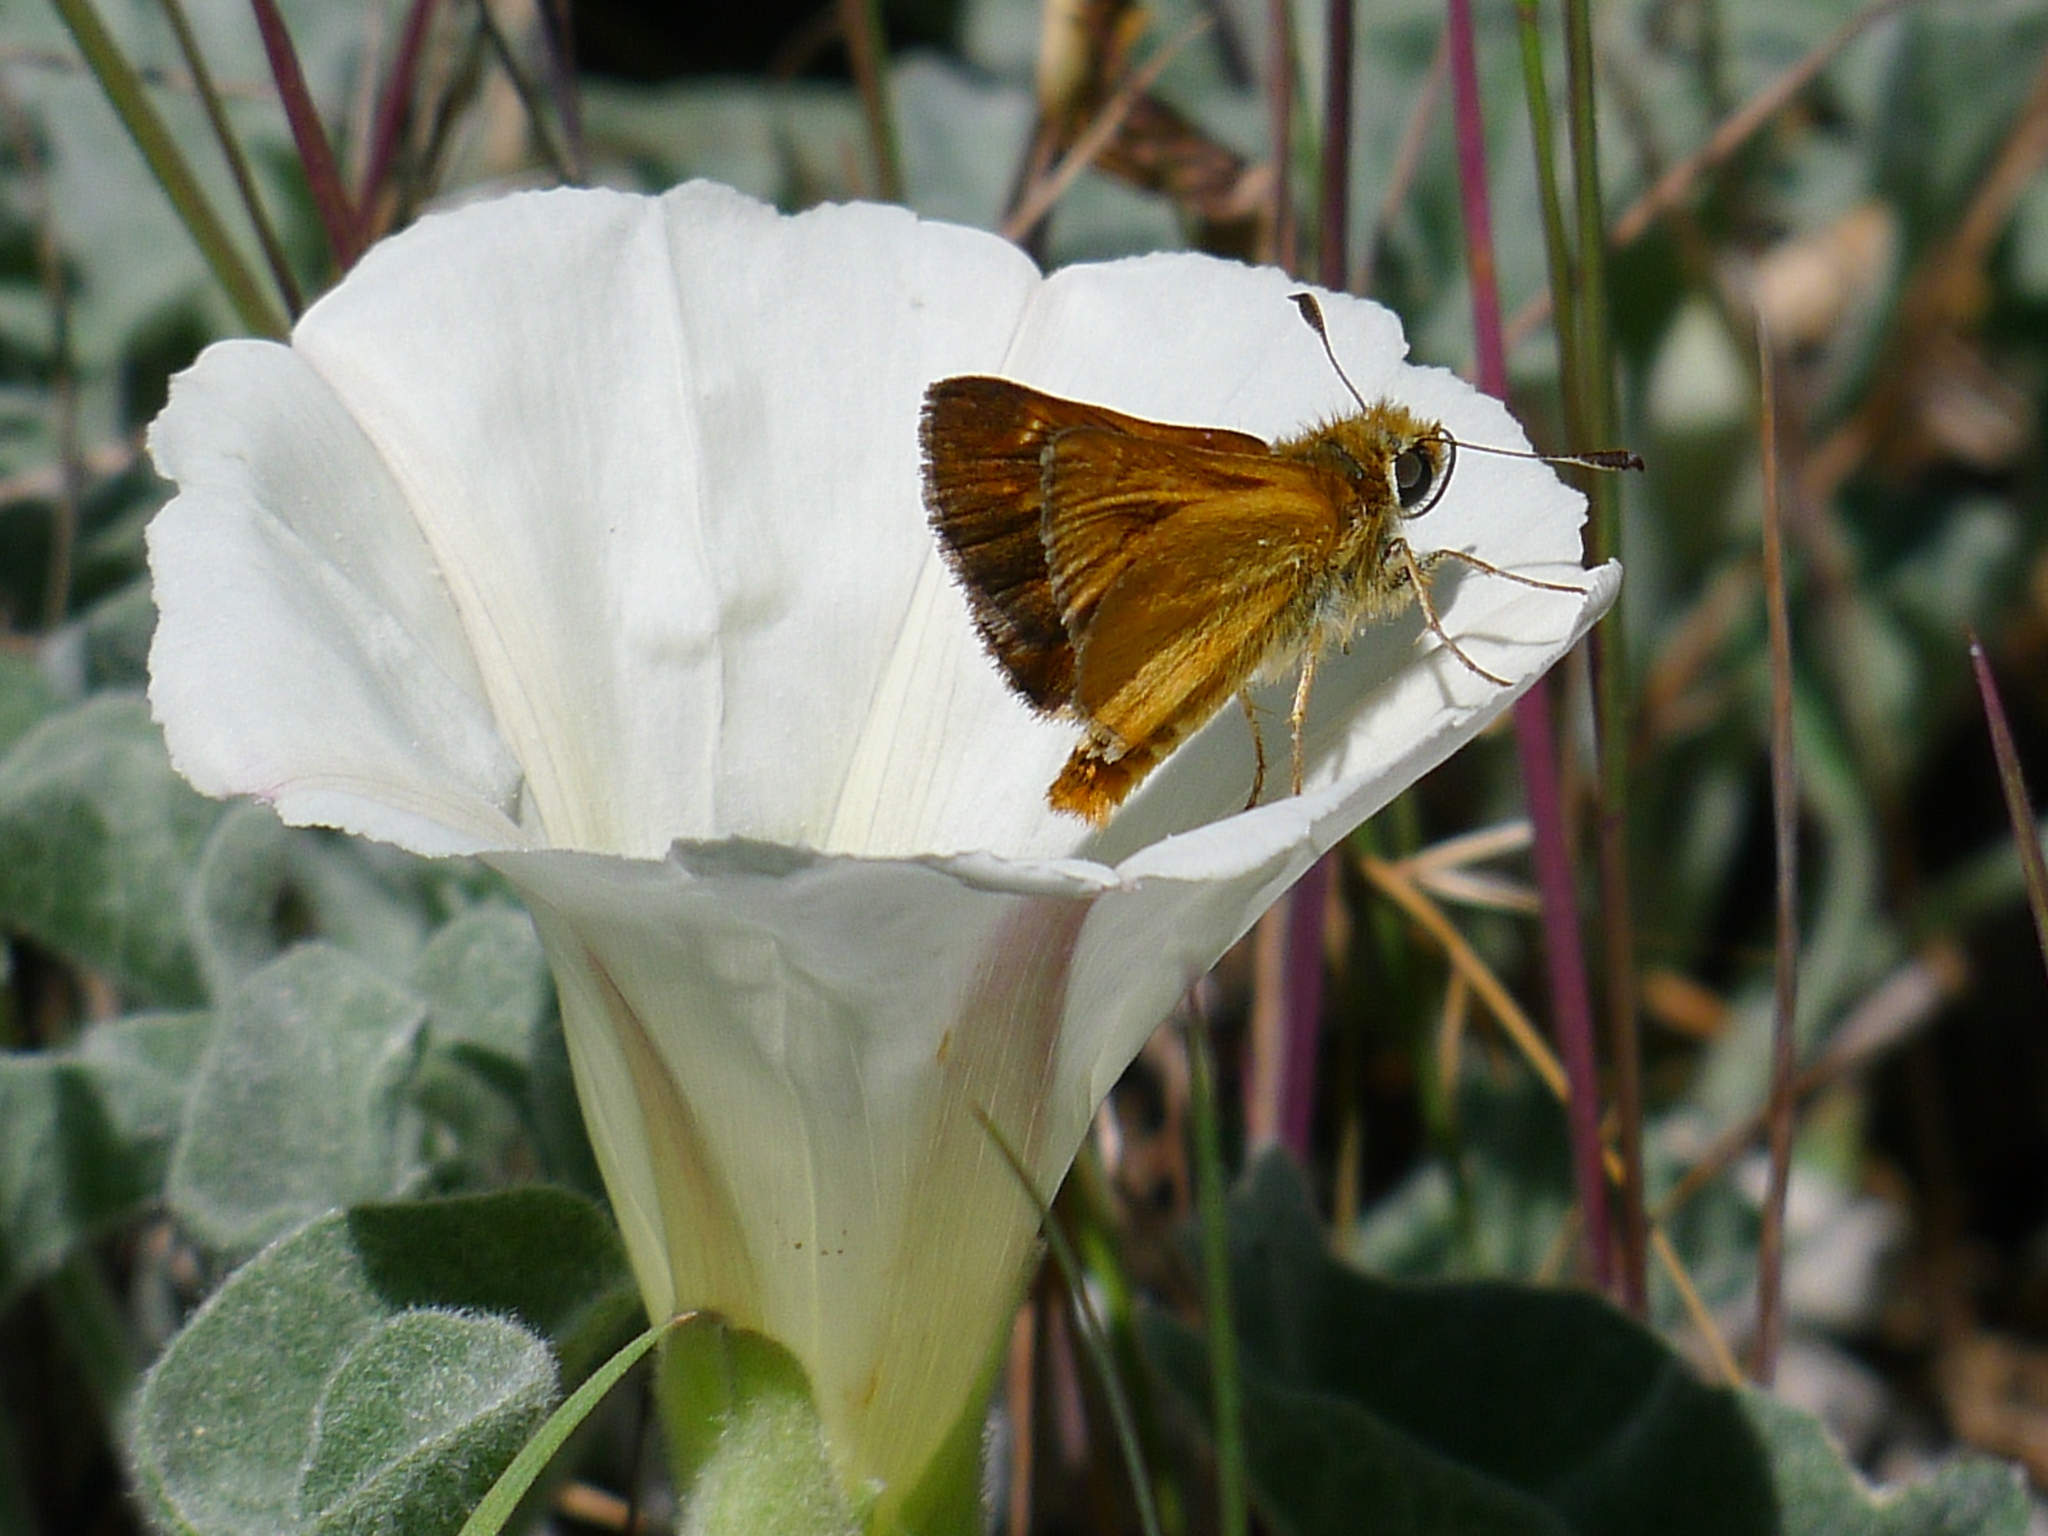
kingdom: Animalia
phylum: Arthropoda
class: Insecta
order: Lepidoptera
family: Hesperiidae
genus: Ochlodes
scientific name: Ochlodes agricola
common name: Rural skipper
